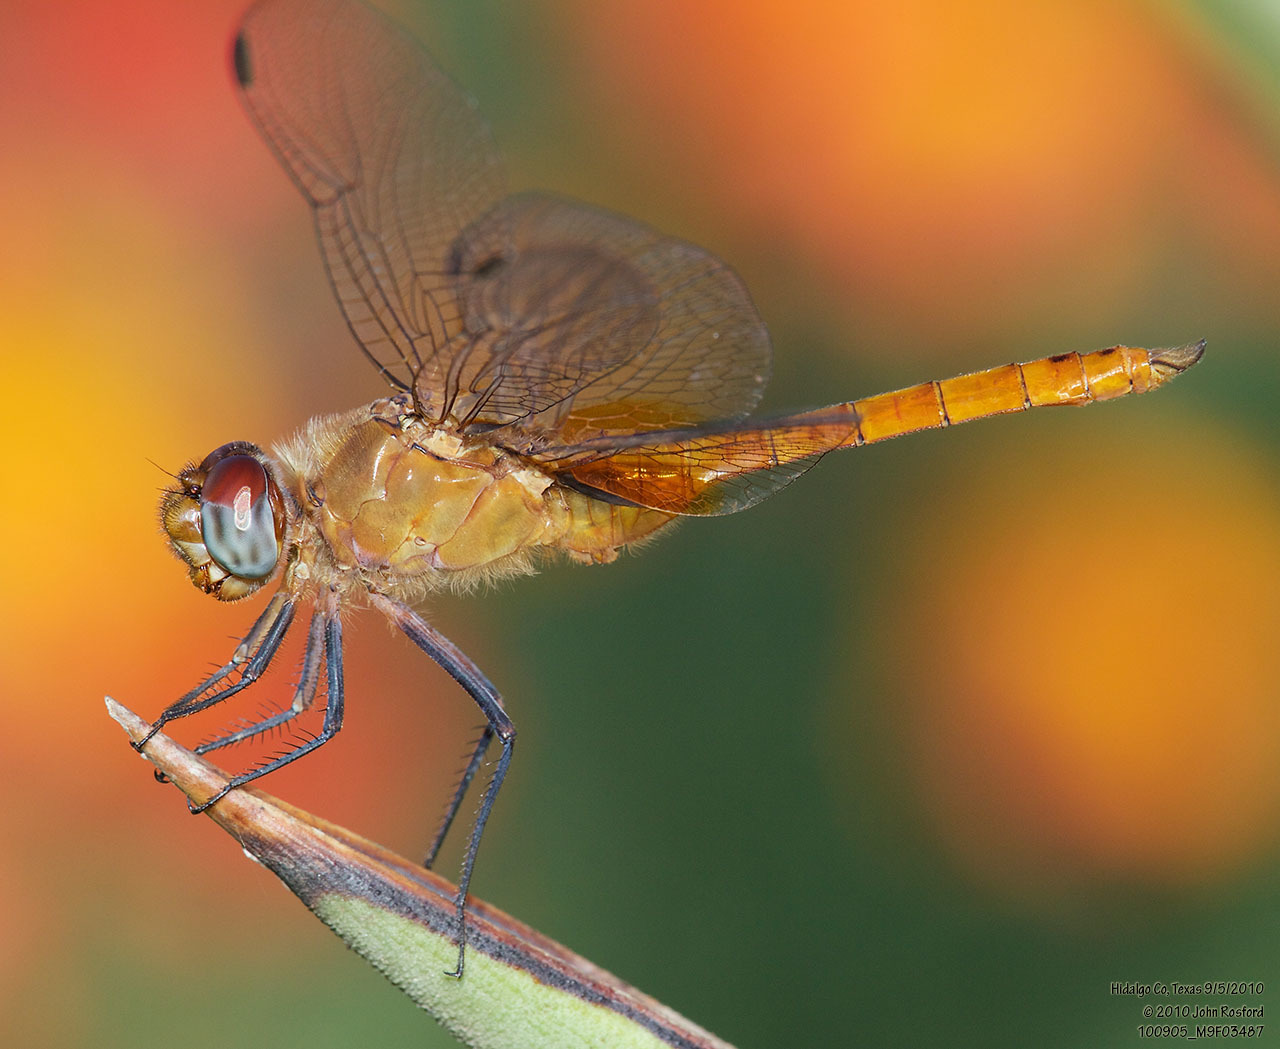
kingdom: Animalia
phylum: Arthropoda
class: Insecta
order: Odonata
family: Libellulidae
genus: Brachymesia
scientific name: Brachymesia furcata
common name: Red-taled pennant
